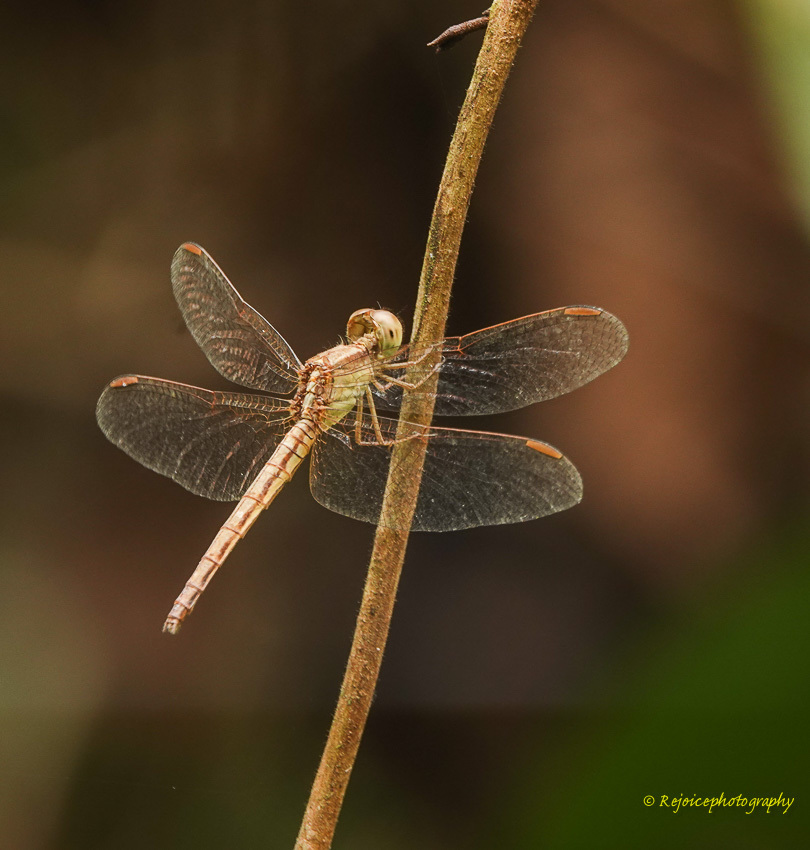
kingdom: Animalia
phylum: Arthropoda
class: Insecta
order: Odonata
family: Libellulidae
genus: Neurothemis
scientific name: Neurothemis intermedia
